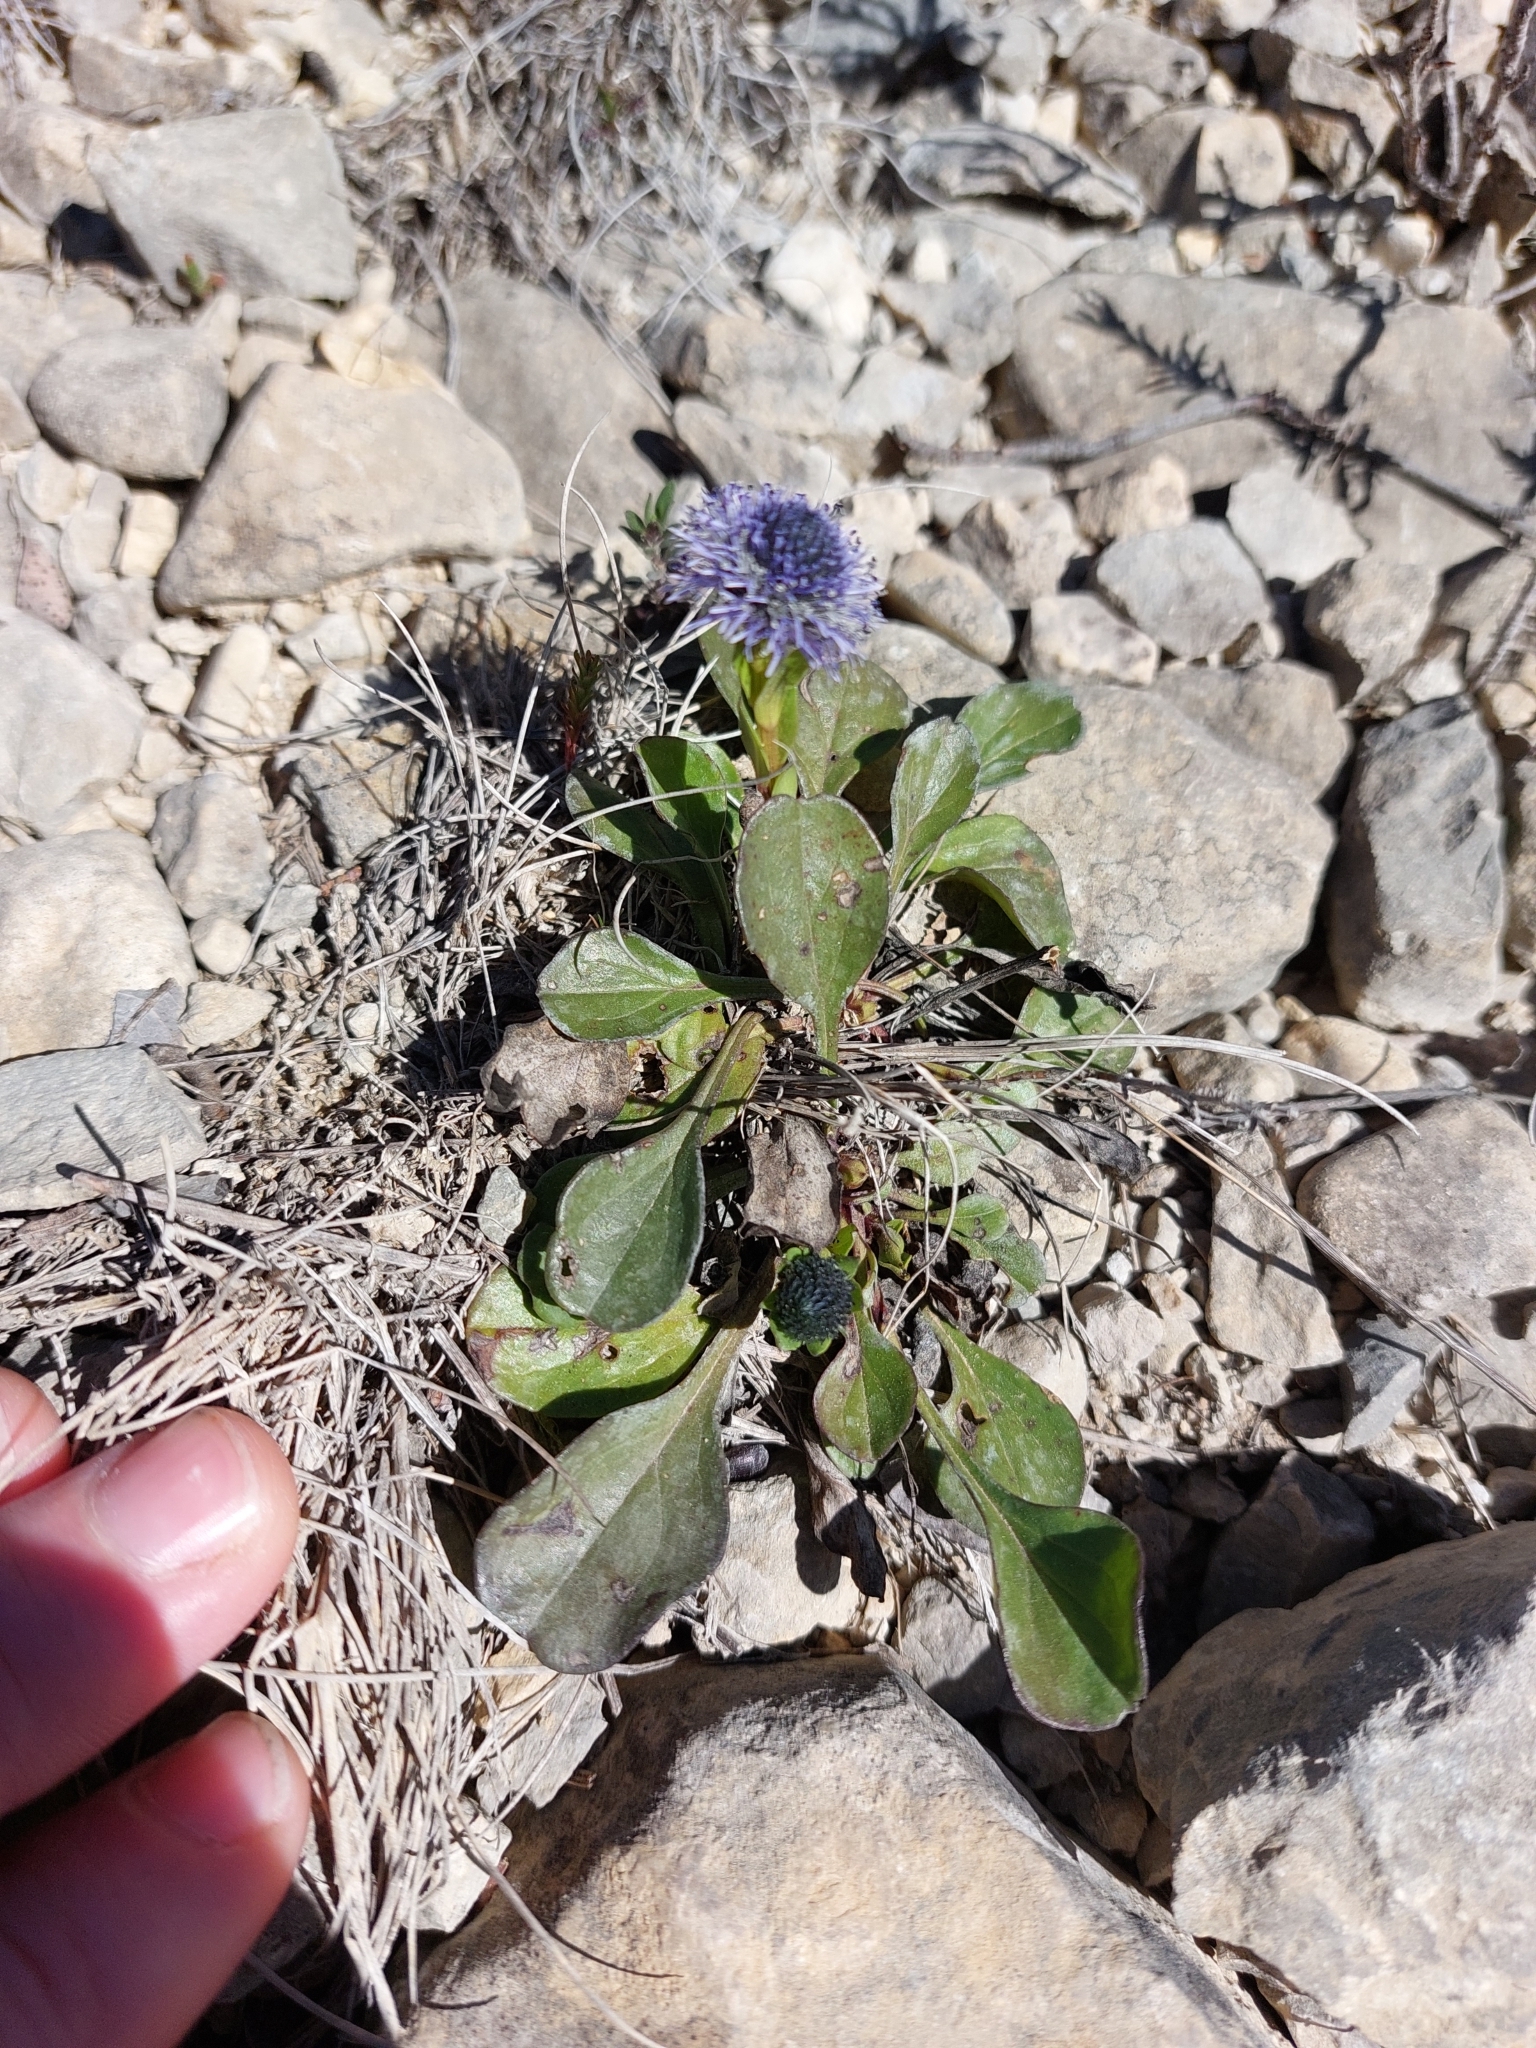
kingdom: Plantae
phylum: Tracheophyta
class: Magnoliopsida
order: Lamiales
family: Plantaginaceae
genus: Globularia
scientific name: Globularia bisnagarica
